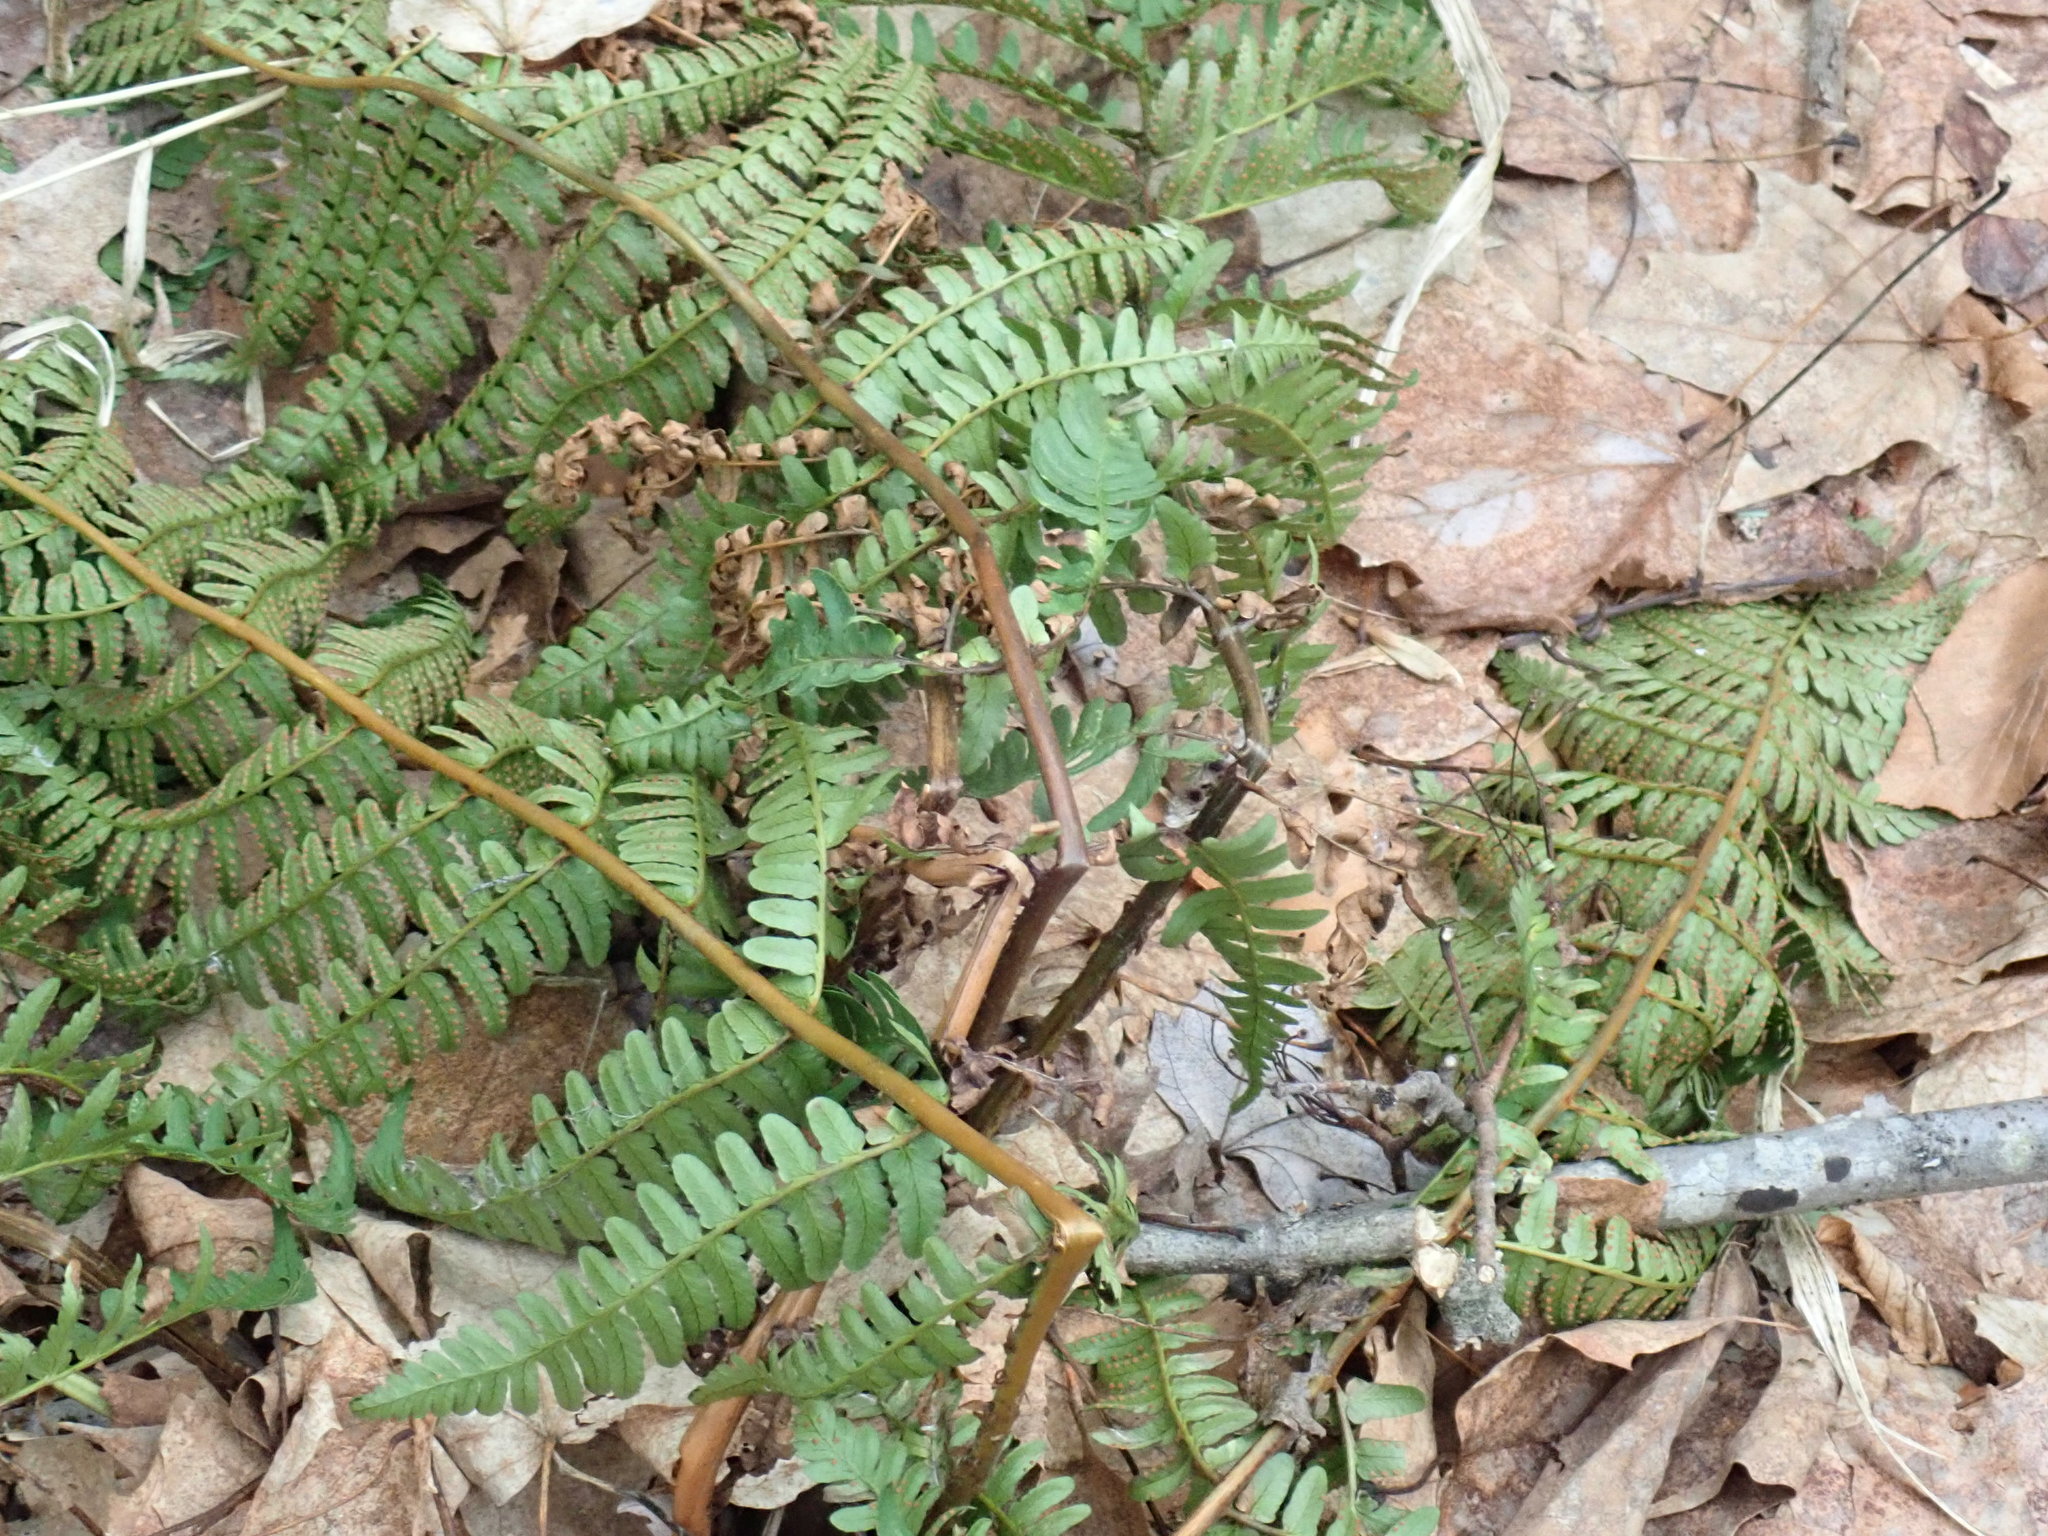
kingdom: Plantae
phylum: Tracheophyta
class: Polypodiopsida
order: Polypodiales
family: Dryopteridaceae
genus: Dryopteris
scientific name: Dryopteris marginalis
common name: Marginal wood fern
